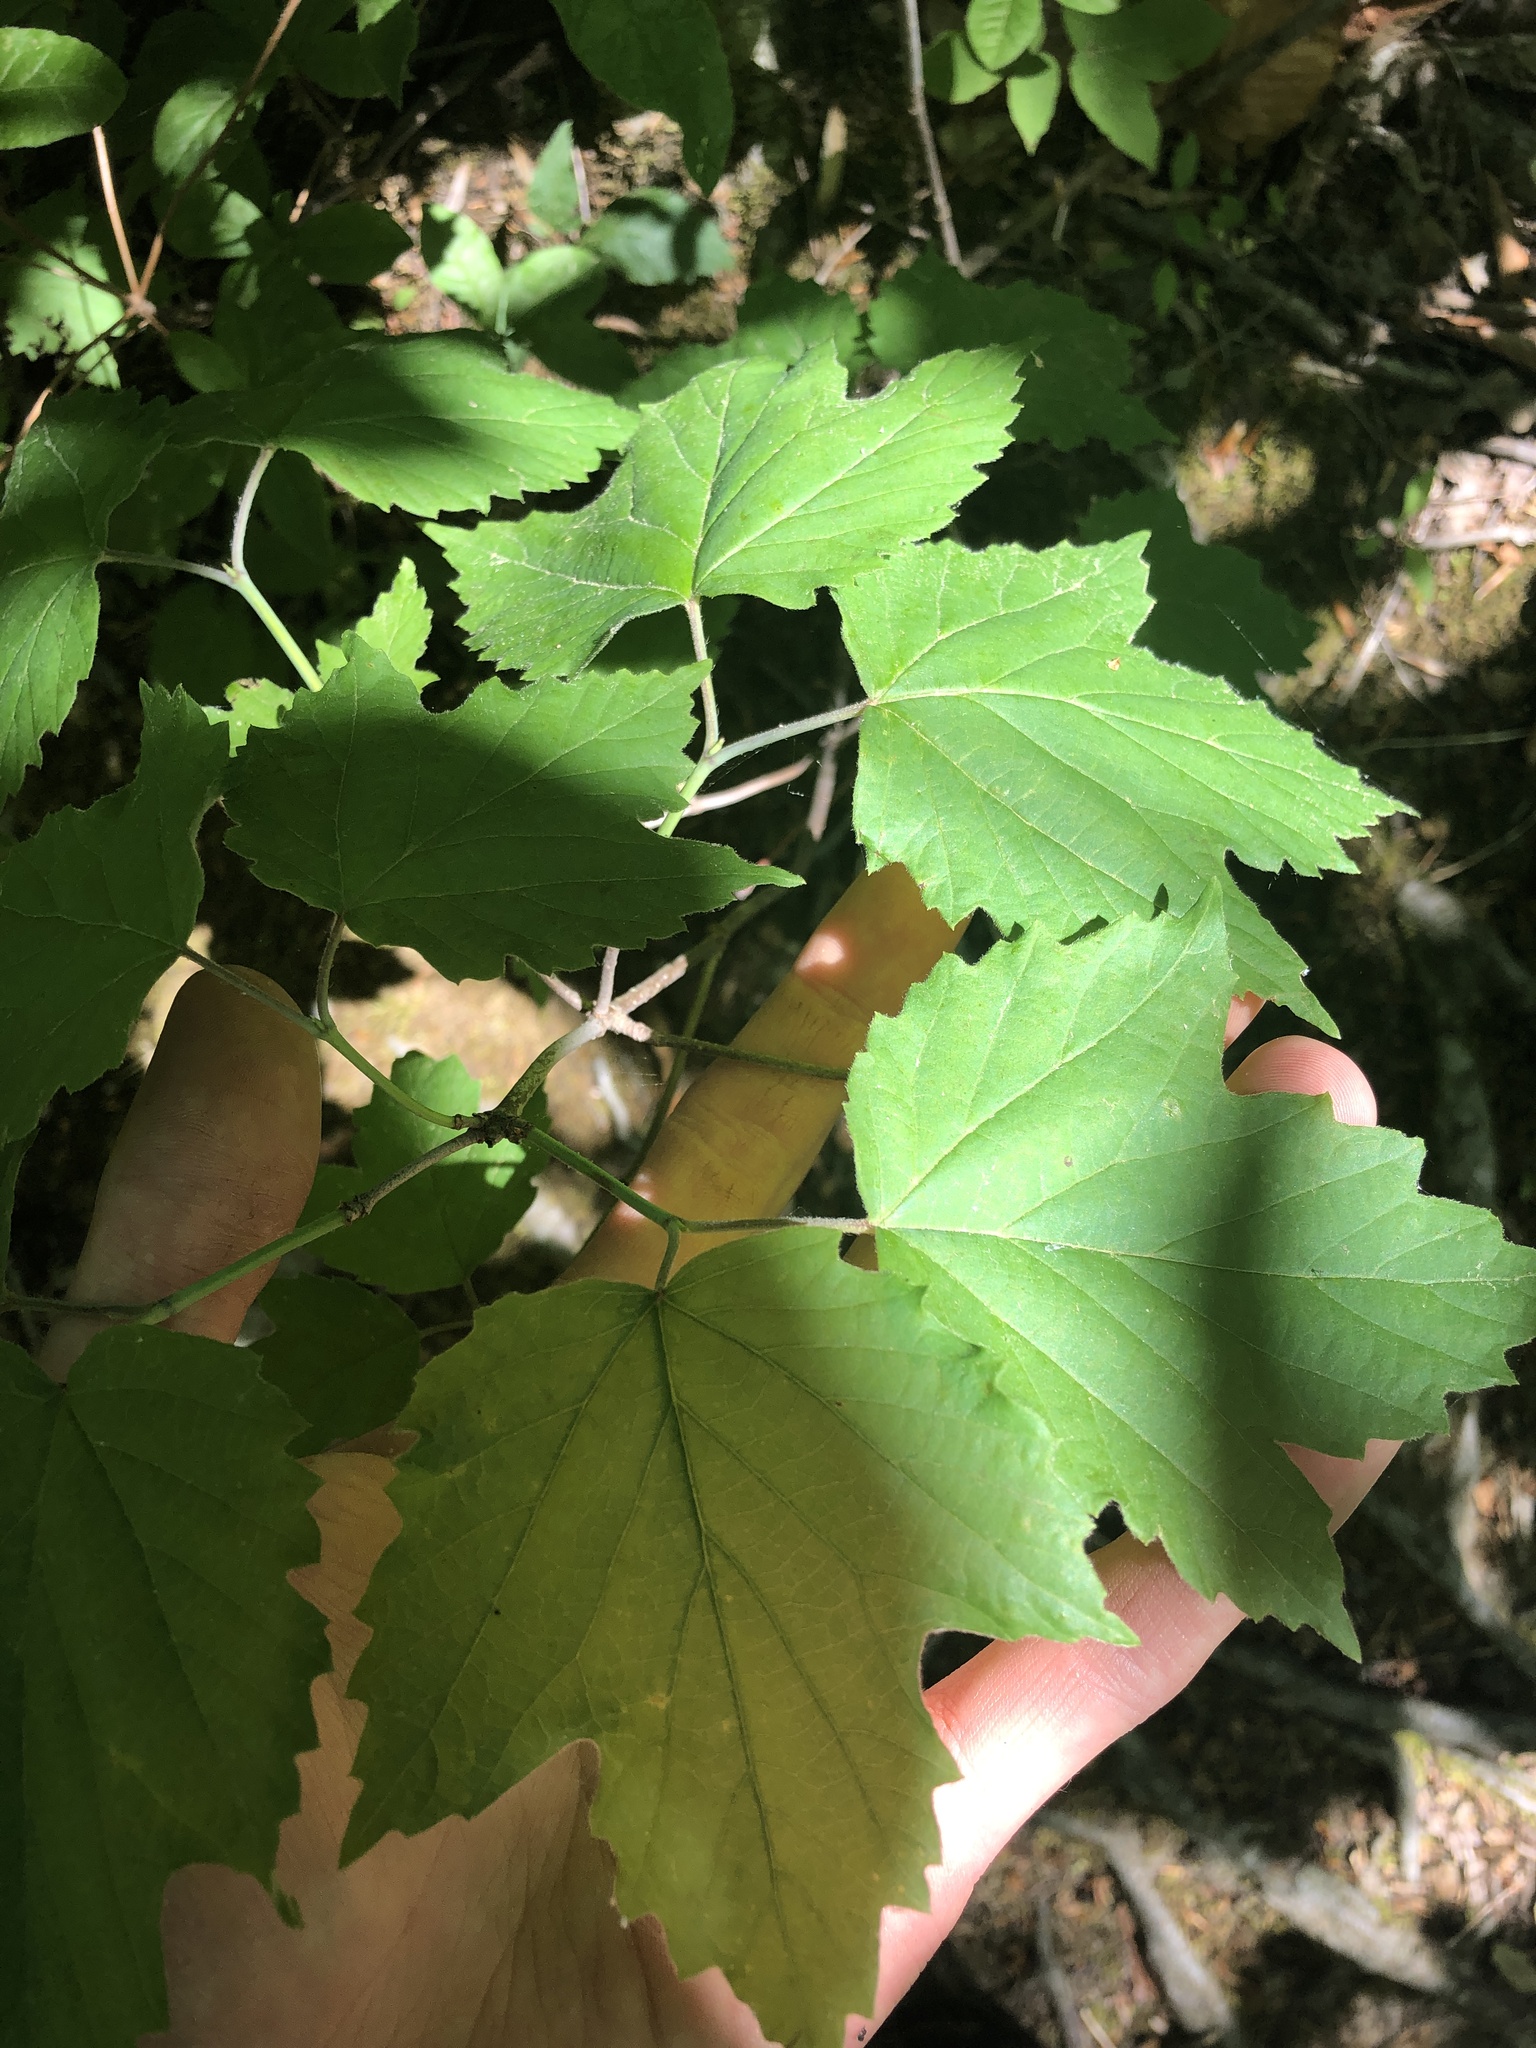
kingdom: Plantae
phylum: Tracheophyta
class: Magnoliopsida
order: Dipsacales
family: Viburnaceae
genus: Viburnum
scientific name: Viburnum acerifolium
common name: Dockmackie
